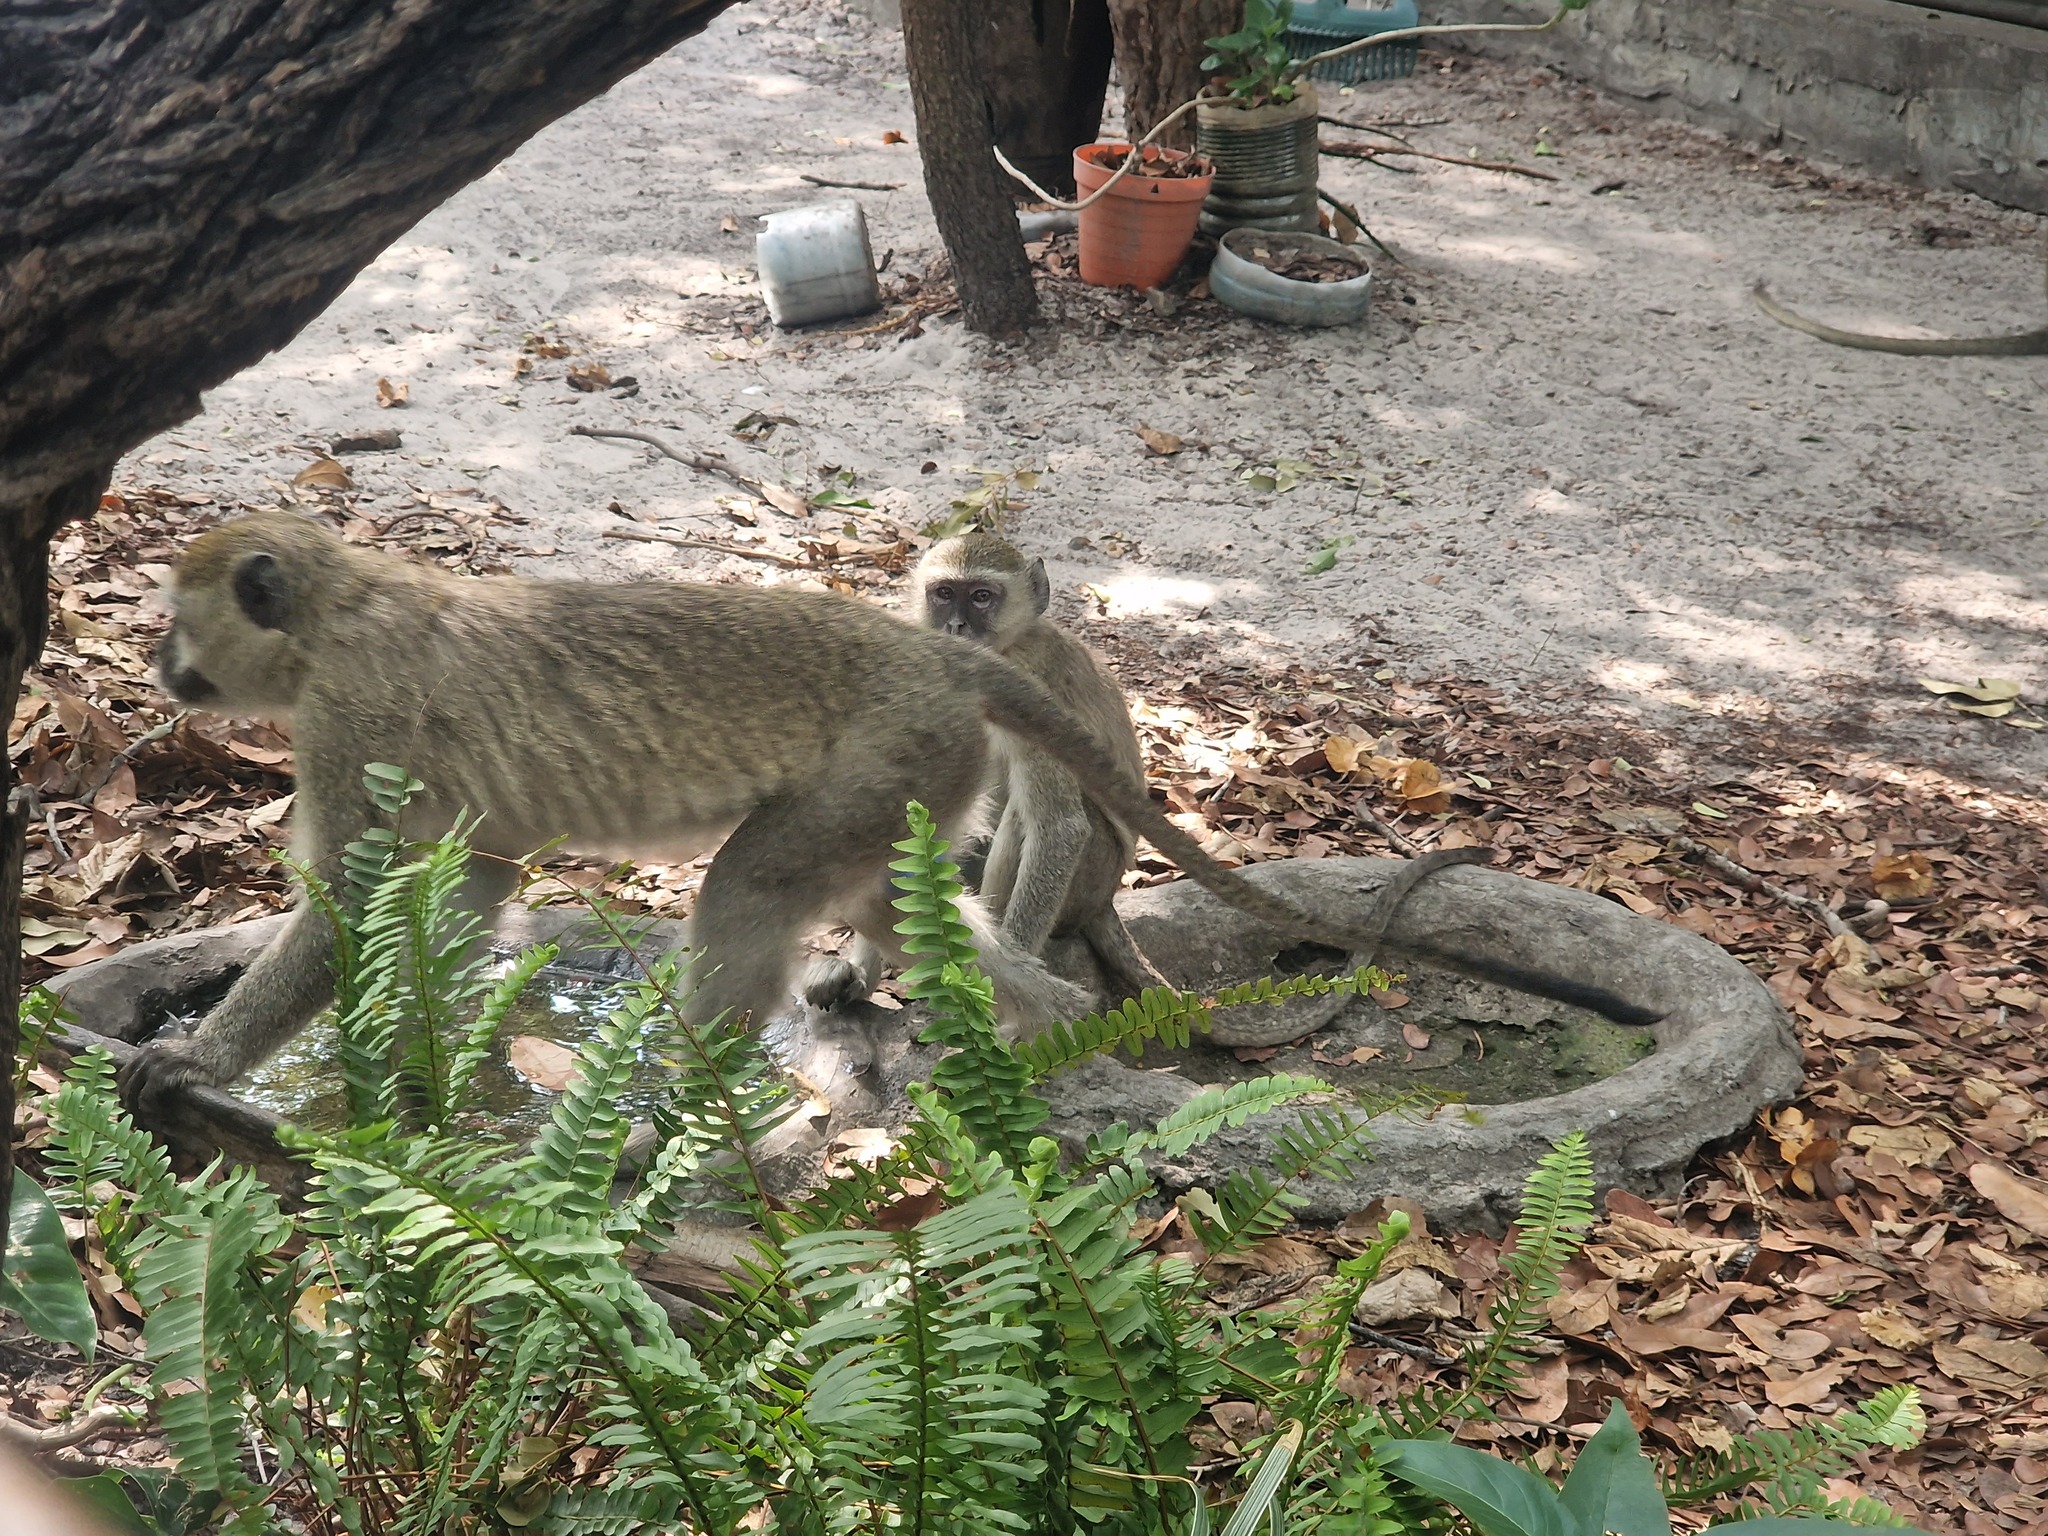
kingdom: Animalia
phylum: Chordata
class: Mammalia
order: Primates
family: Cercopithecidae
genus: Chlorocebus
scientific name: Chlorocebus cynosuros
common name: Malbrouck
